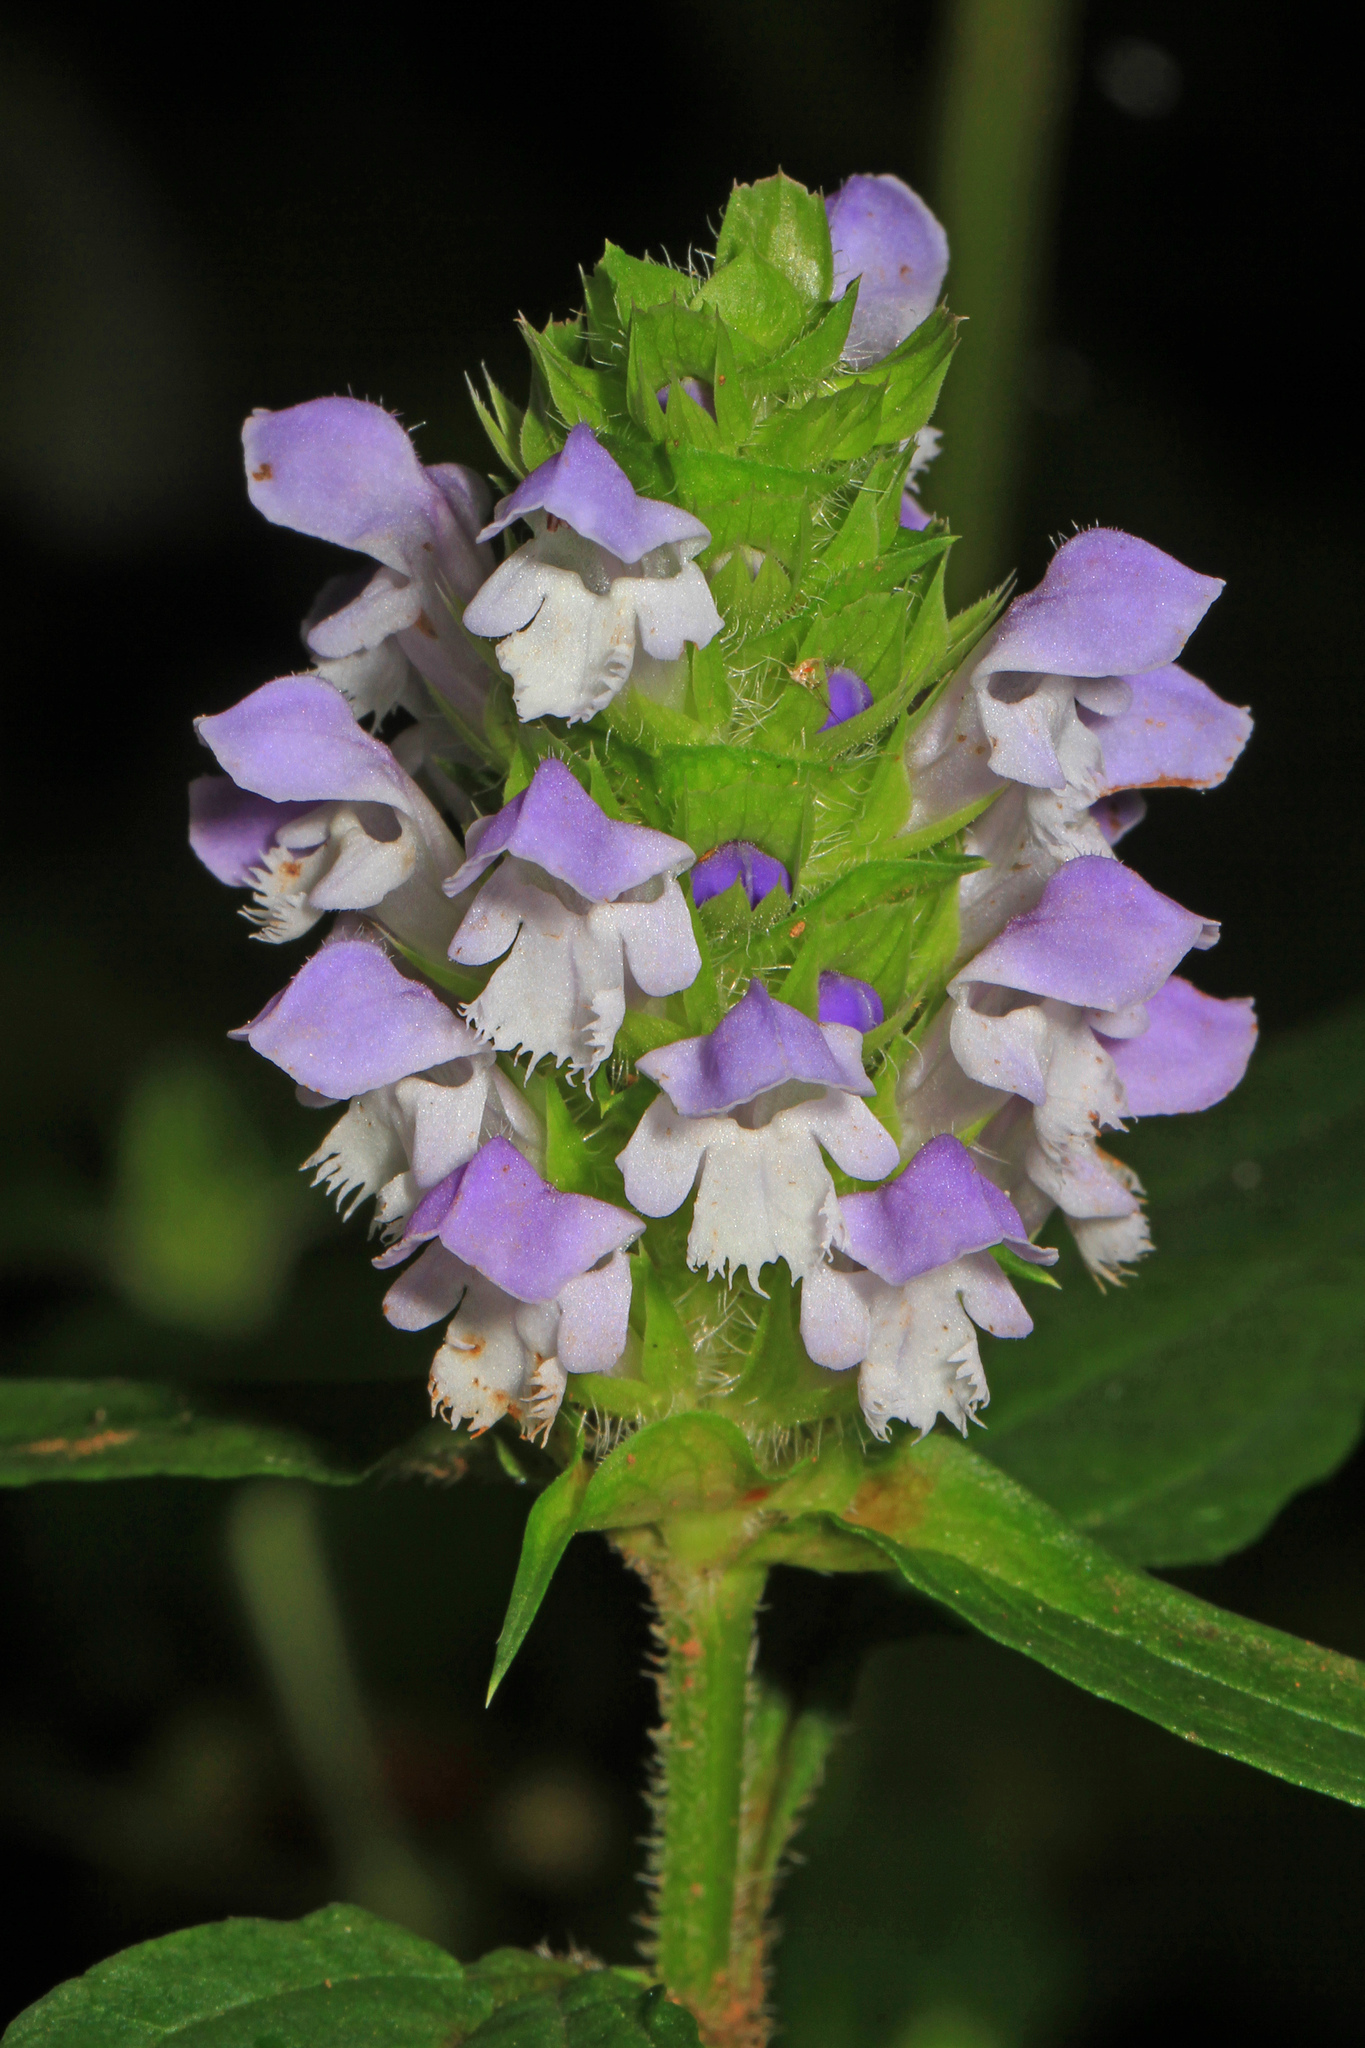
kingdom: Plantae
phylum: Tracheophyta
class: Magnoliopsida
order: Lamiales
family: Lamiaceae
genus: Prunella
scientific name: Prunella vulgaris
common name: Heal-all
